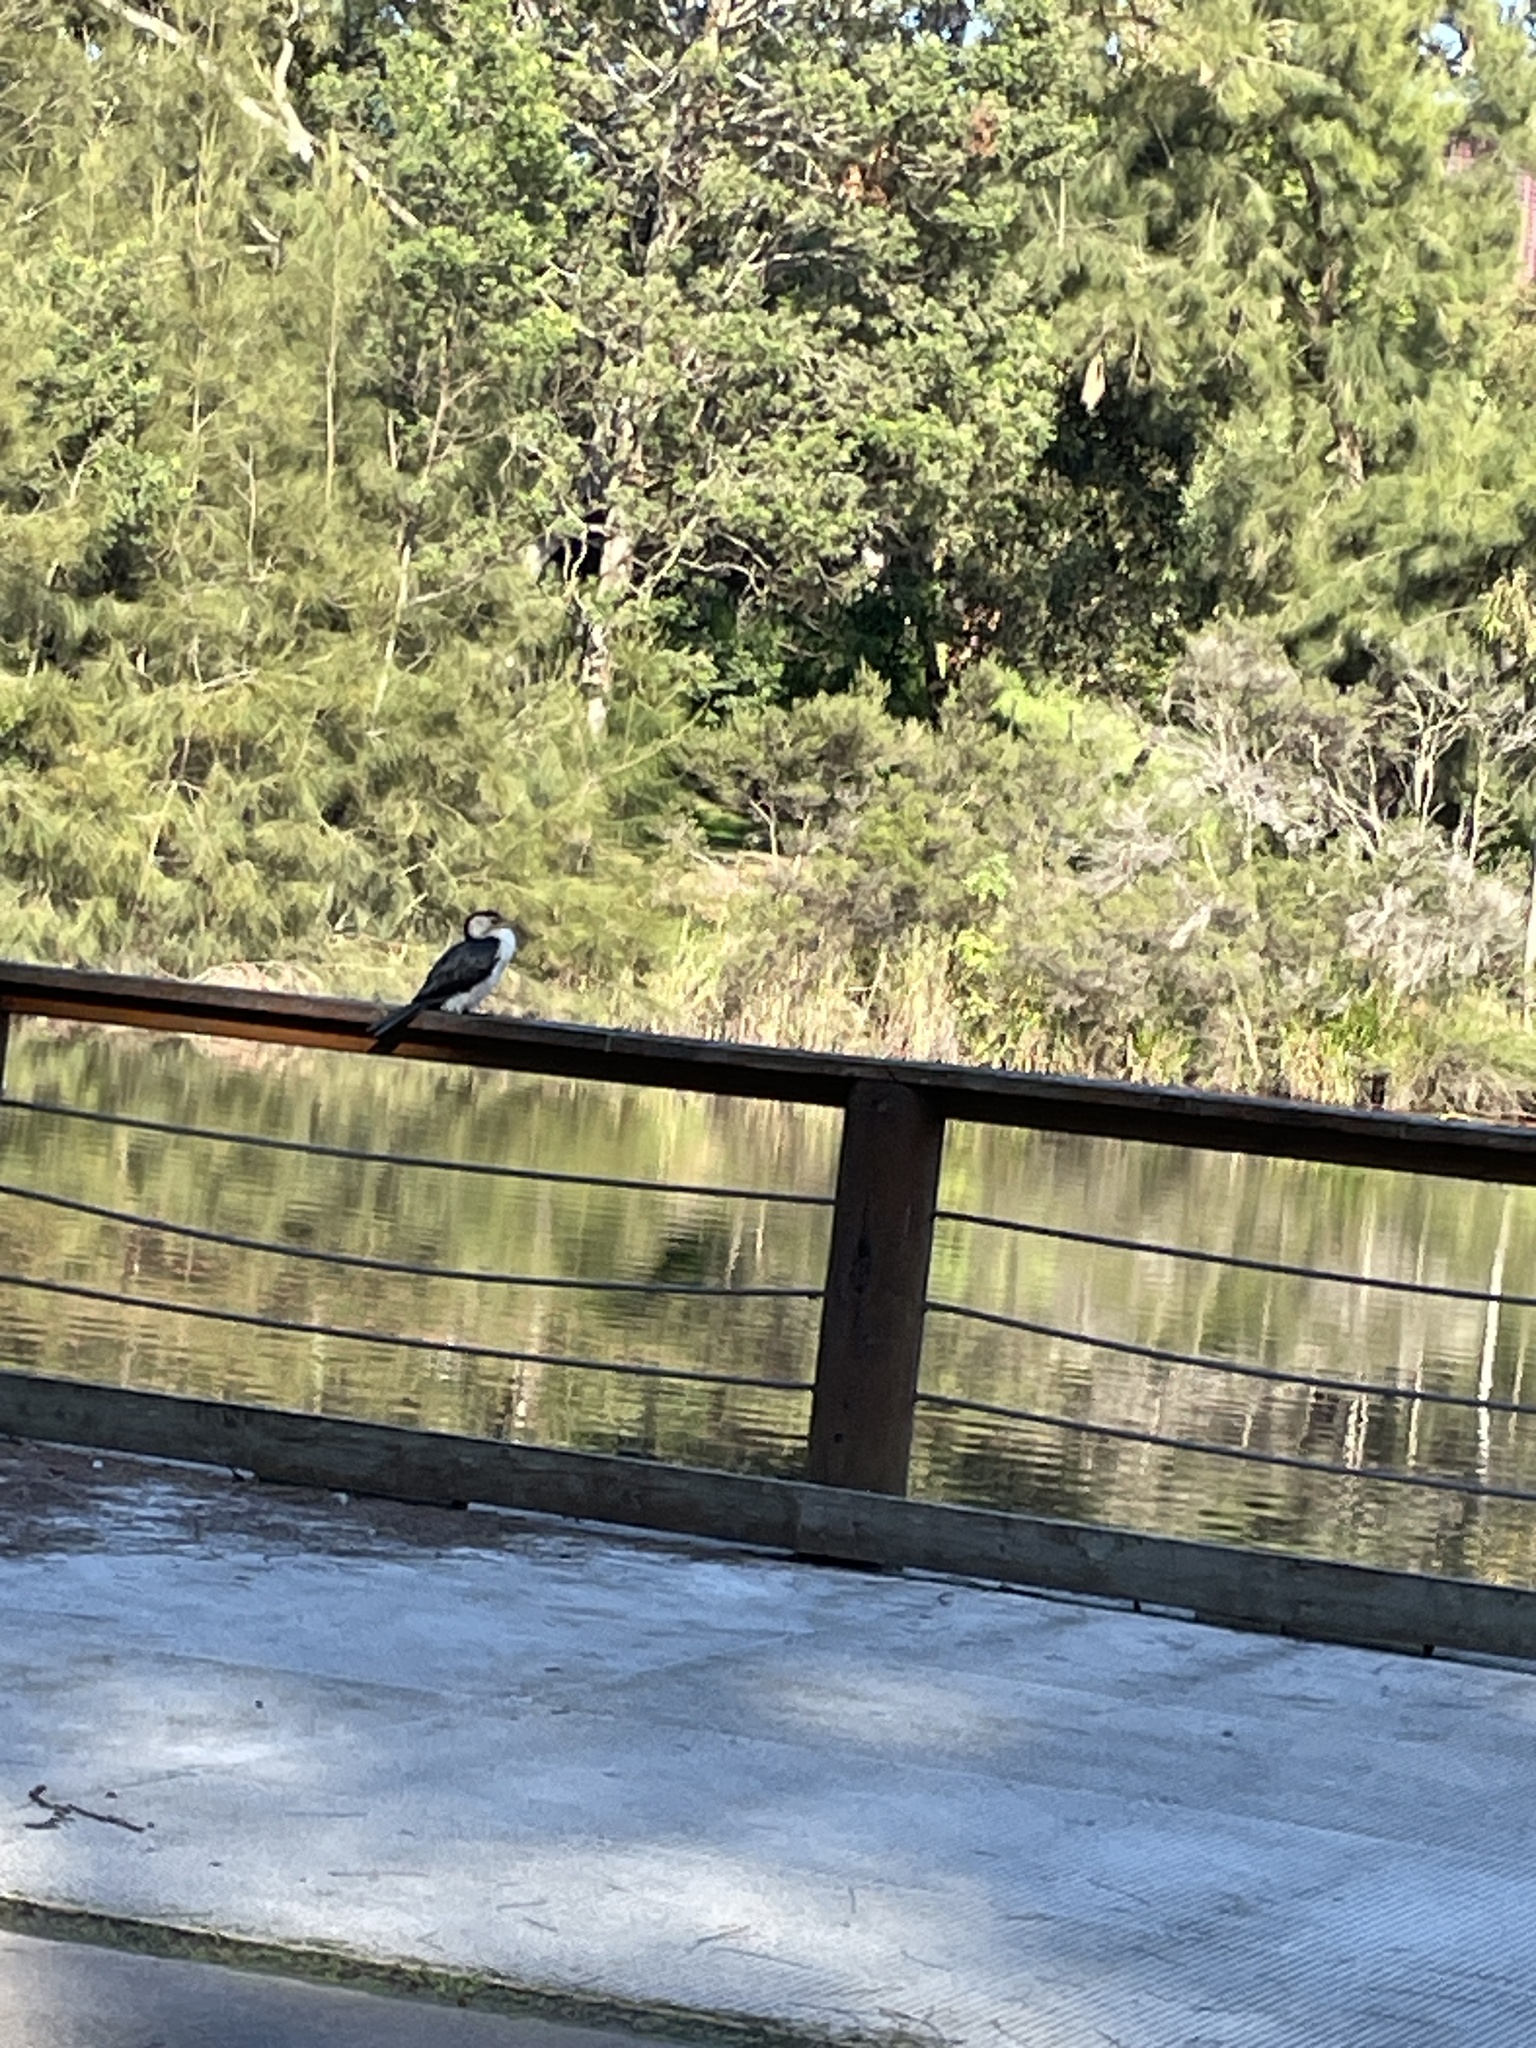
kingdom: Animalia
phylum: Chordata
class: Aves
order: Suliformes
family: Phalacrocoracidae
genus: Microcarbo
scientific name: Microcarbo melanoleucos
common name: Little pied cormorant
